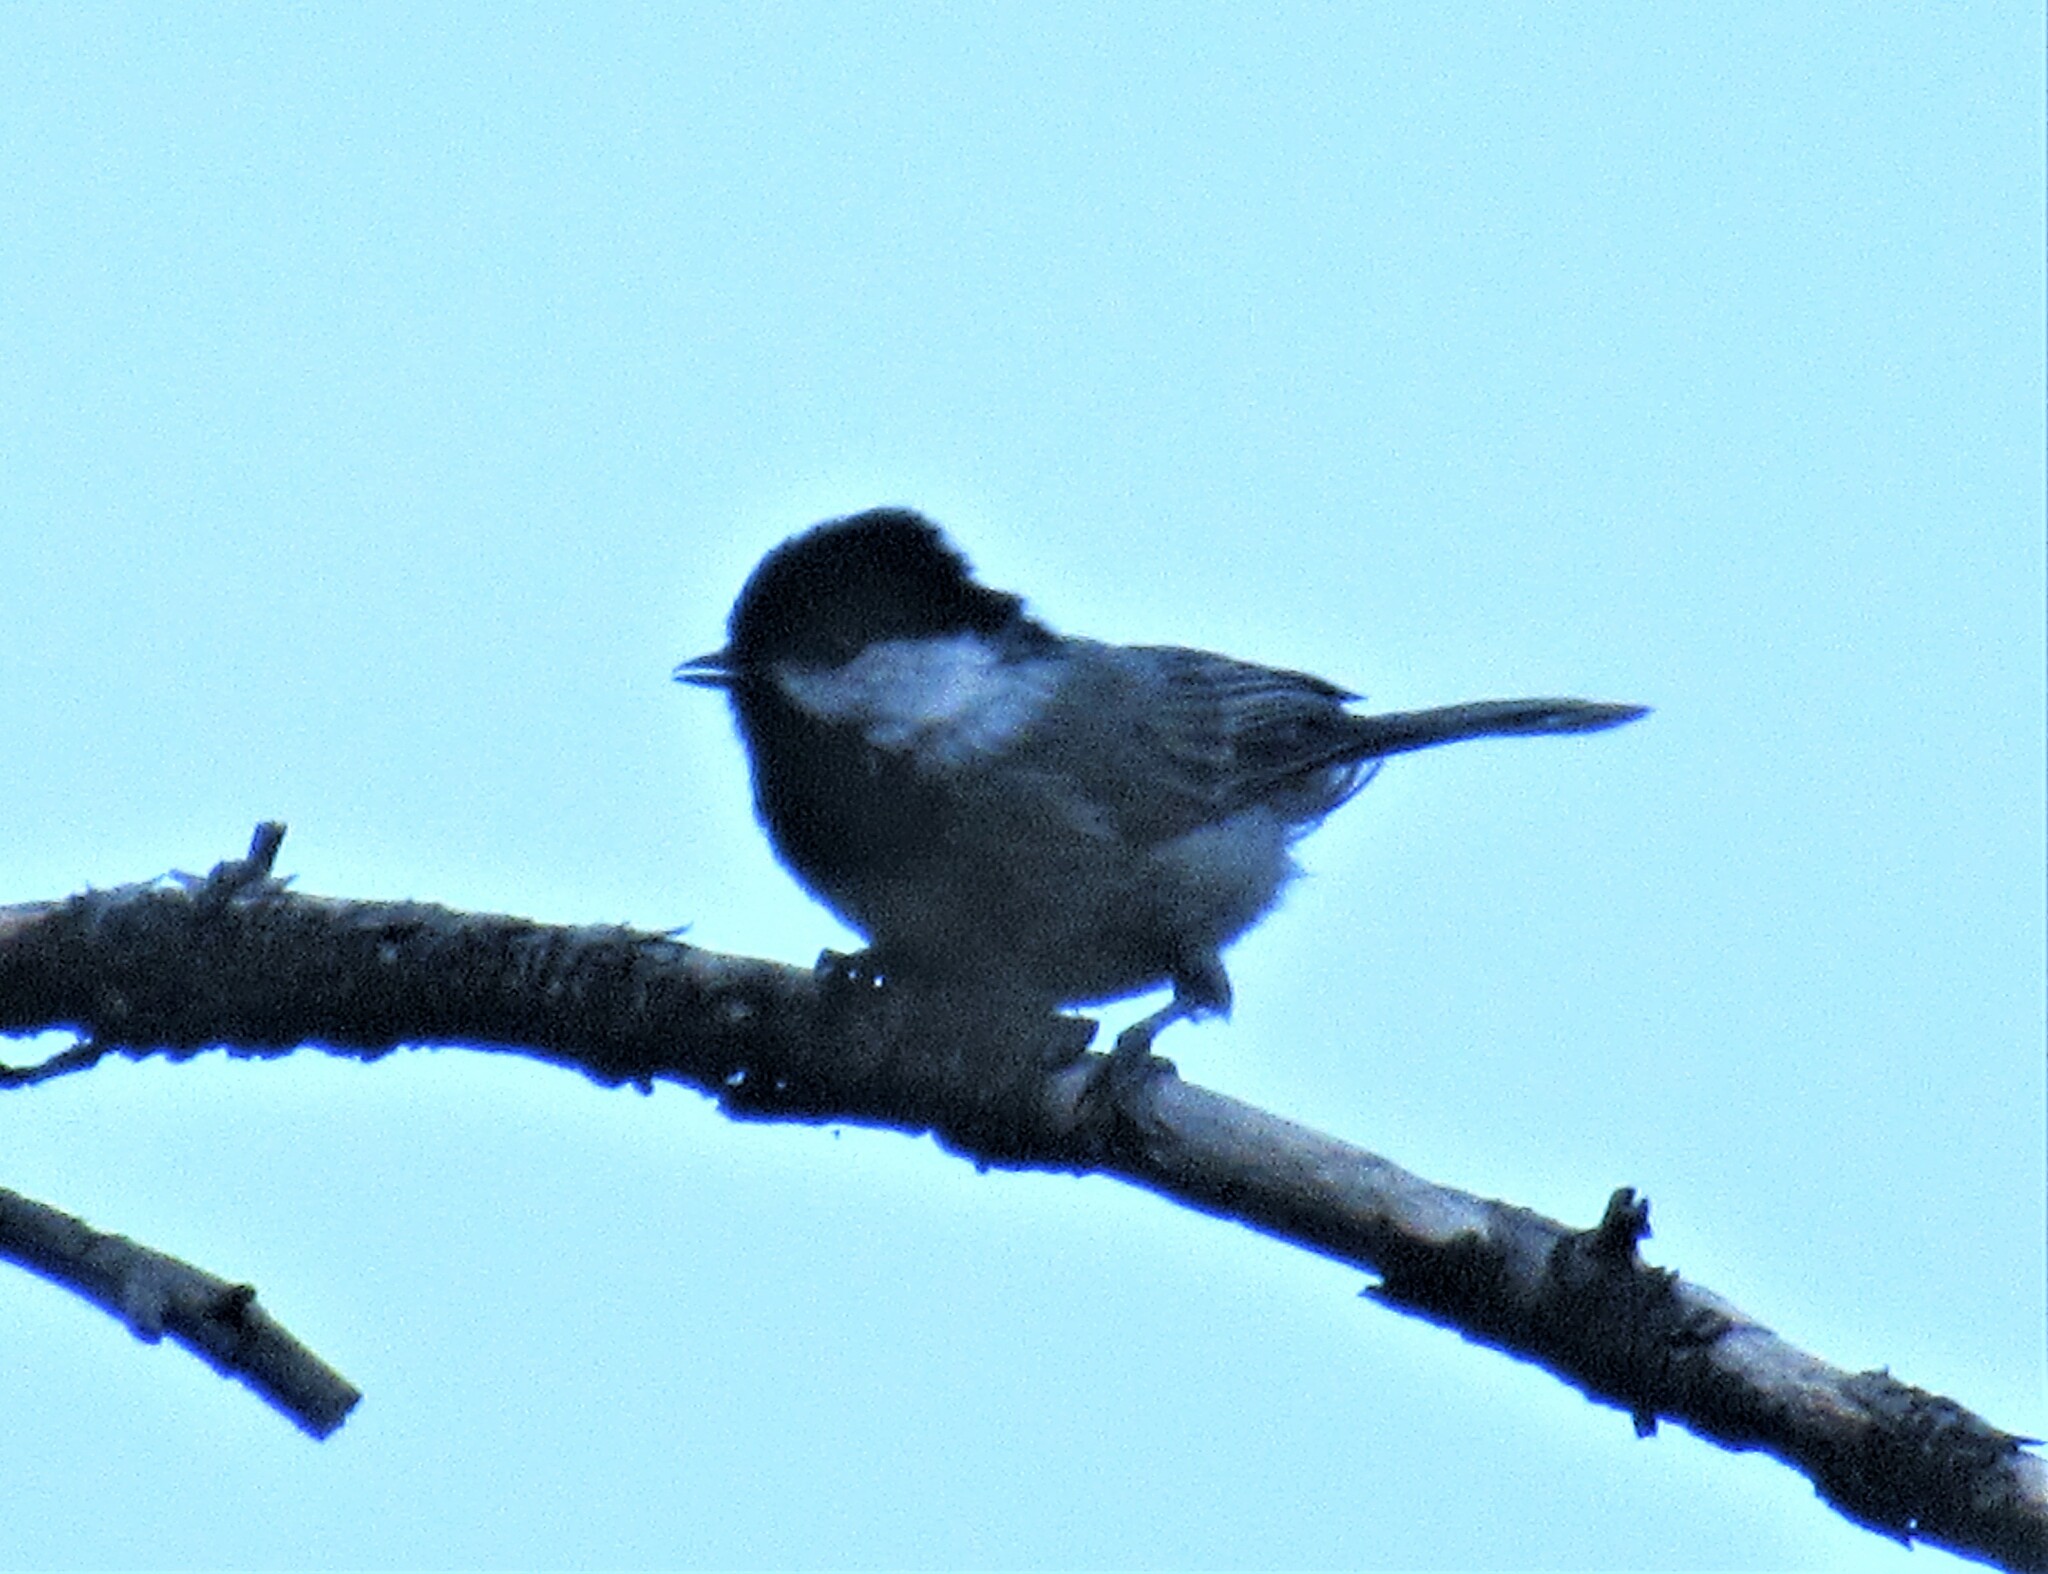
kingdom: Animalia
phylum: Chordata
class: Aves
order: Passeriformes
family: Paridae
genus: Poecile
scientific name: Poecile sclateri
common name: Mexican chickadee
